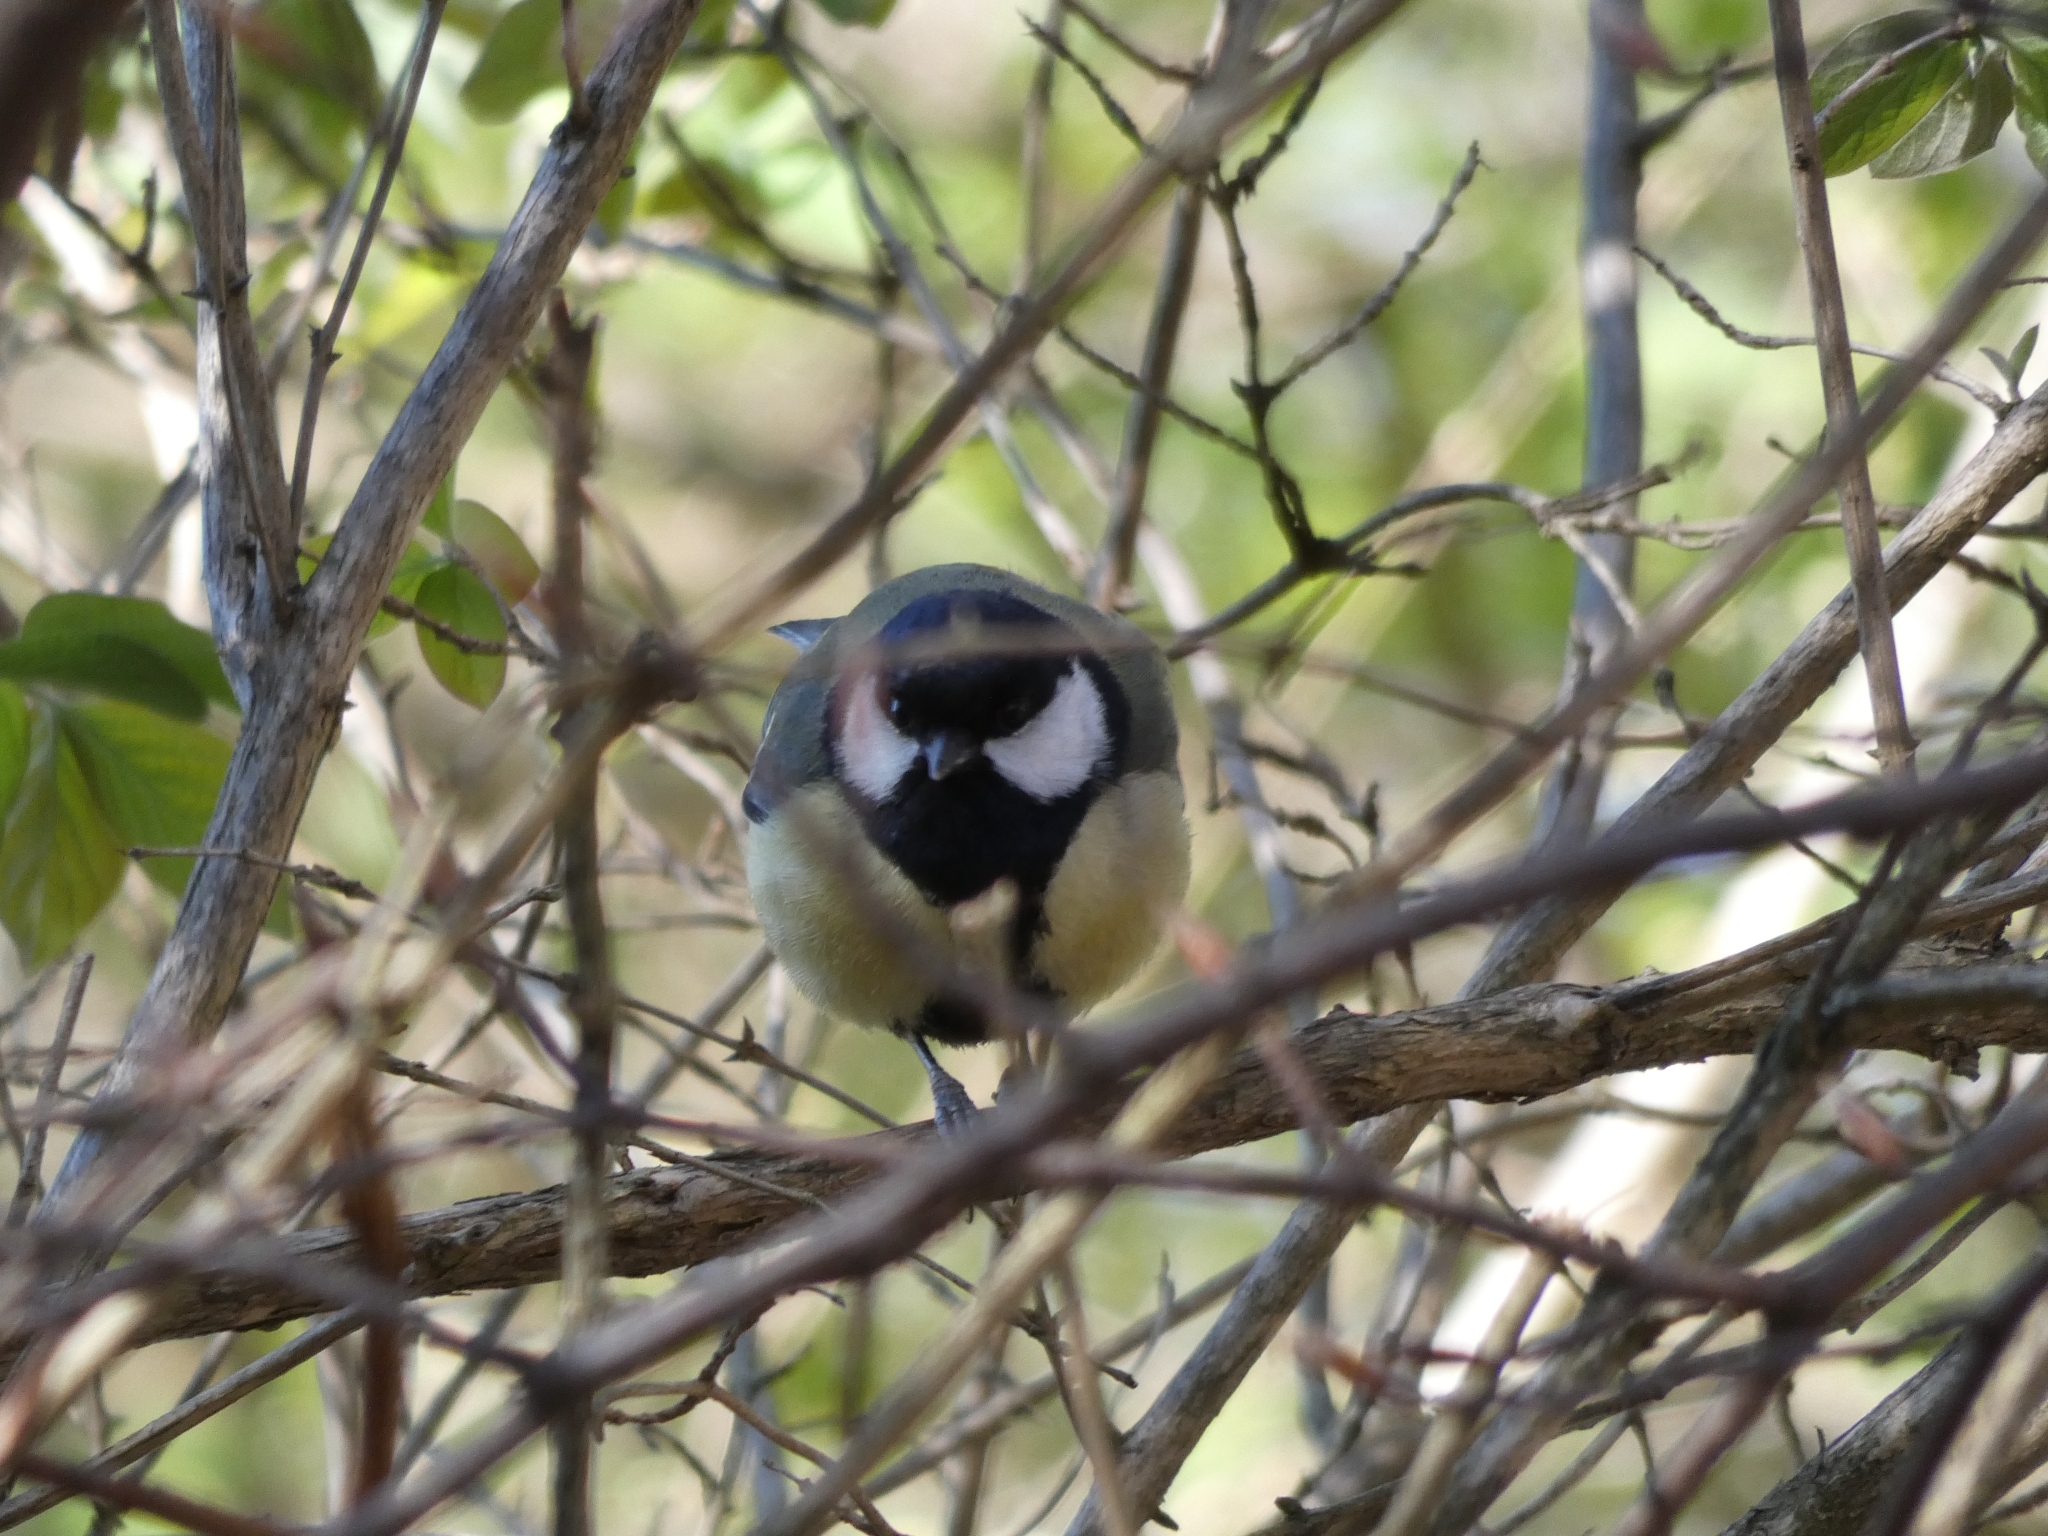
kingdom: Animalia
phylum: Chordata
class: Aves
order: Passeriformes
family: Paridae
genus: Parus
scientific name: Parus major
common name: Great tit
